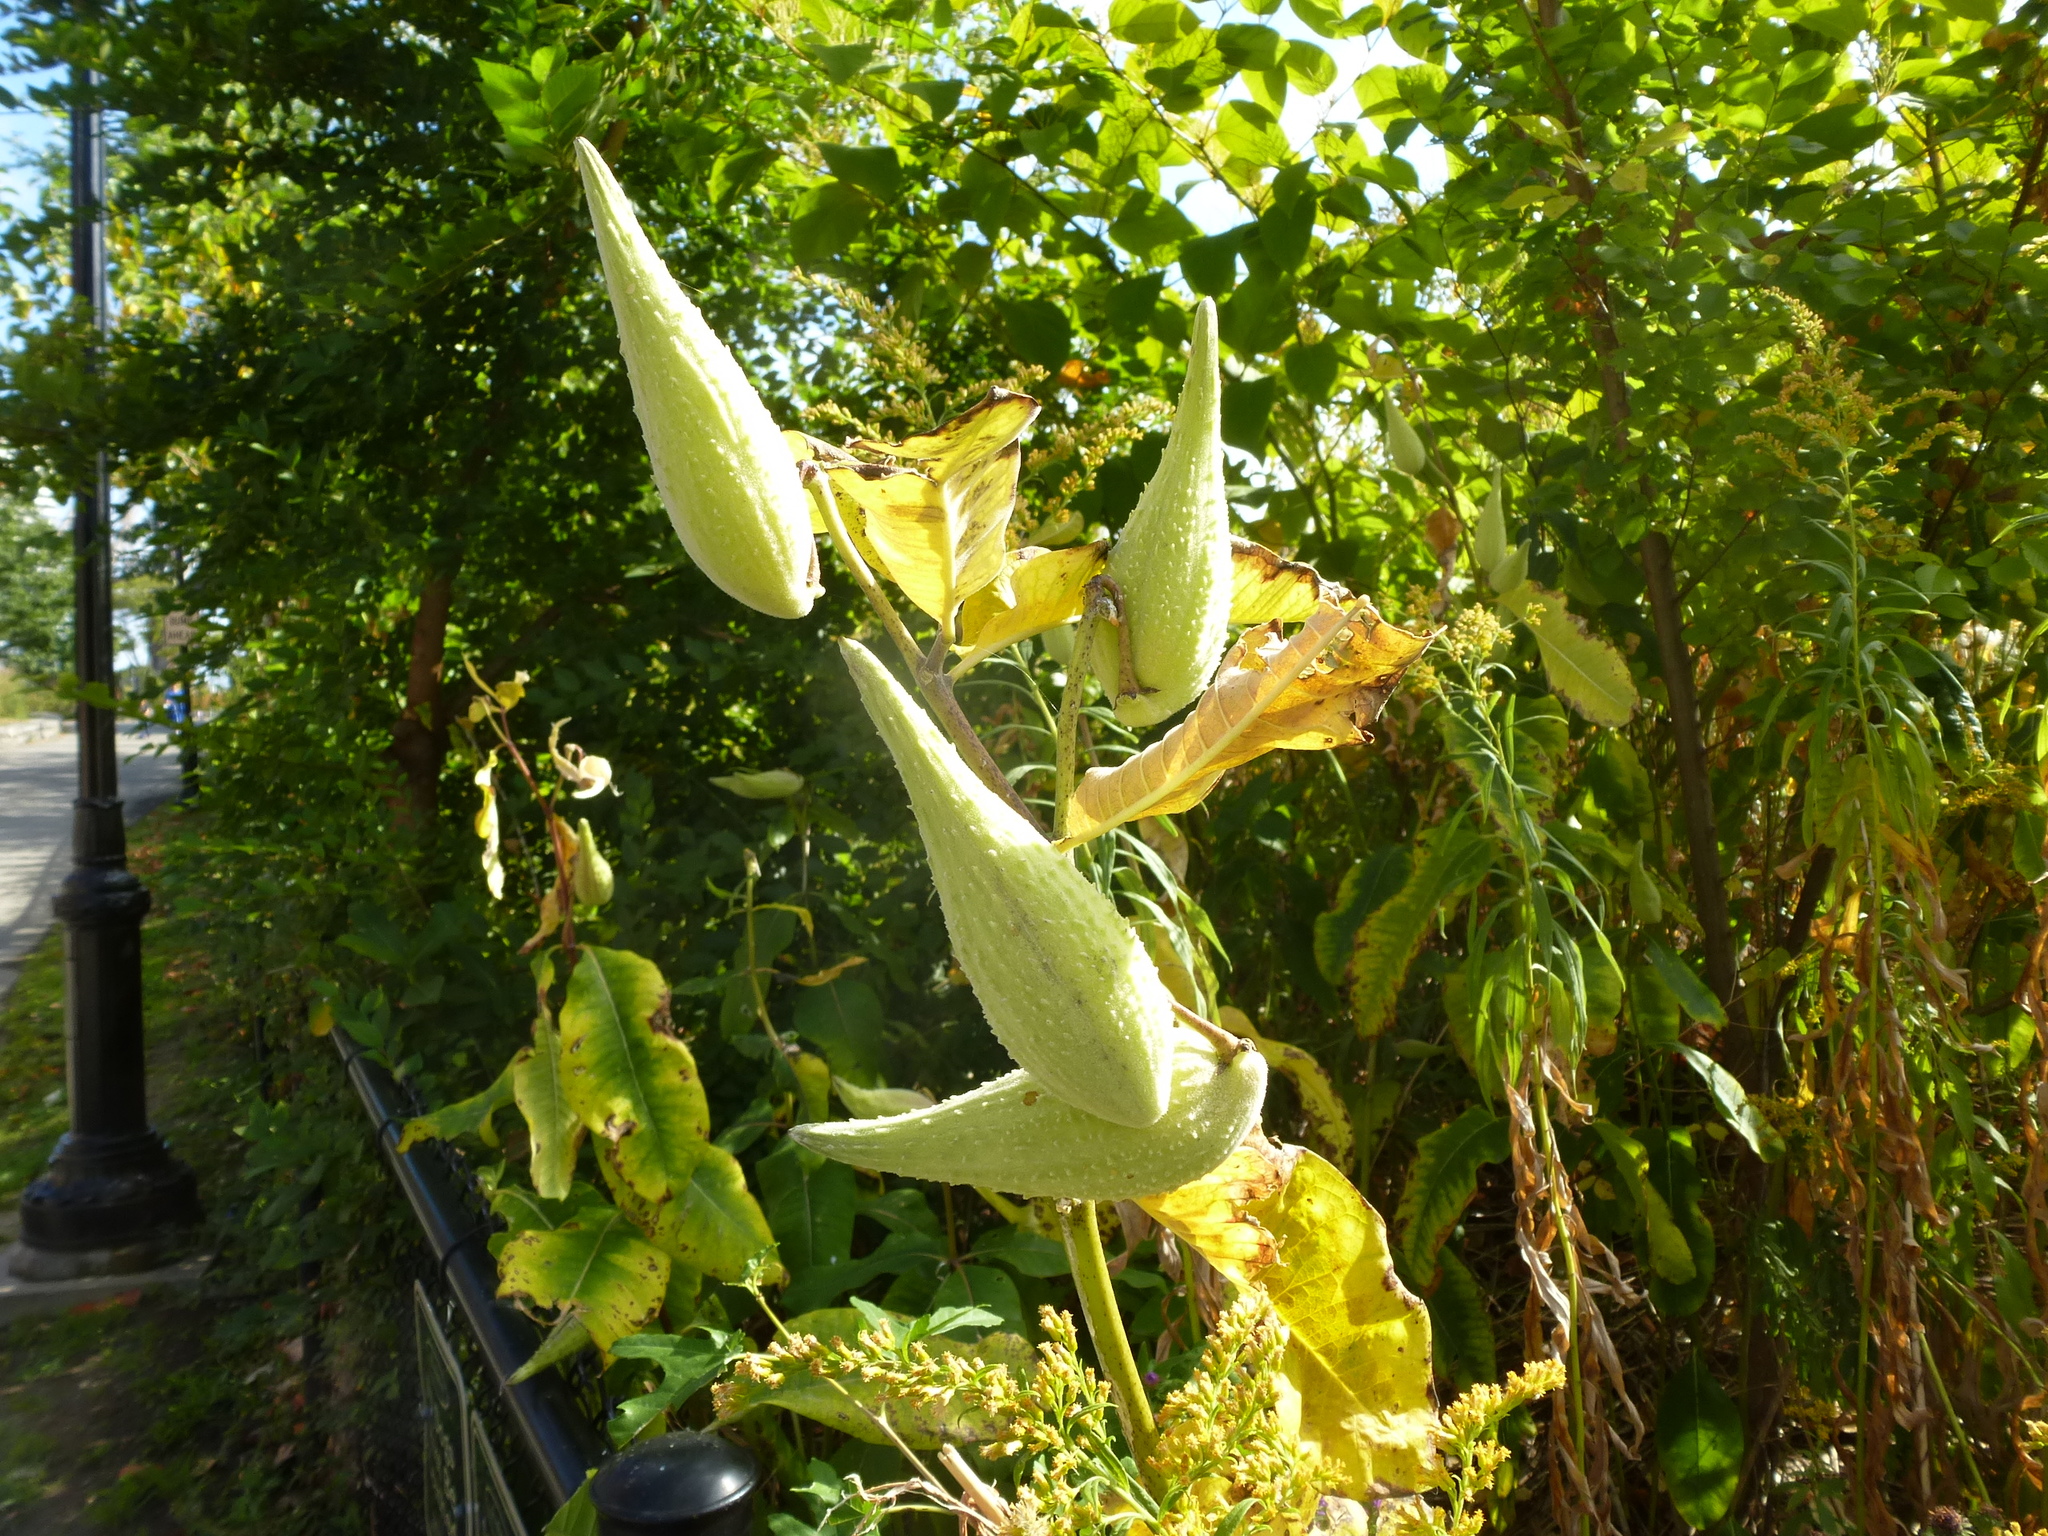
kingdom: Plantae
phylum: Tracheophyta
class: Magnoliopsida
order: Gentianales
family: Apocynaceae
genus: Asclepias
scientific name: Asclepias syriaca
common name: Common milkweed
